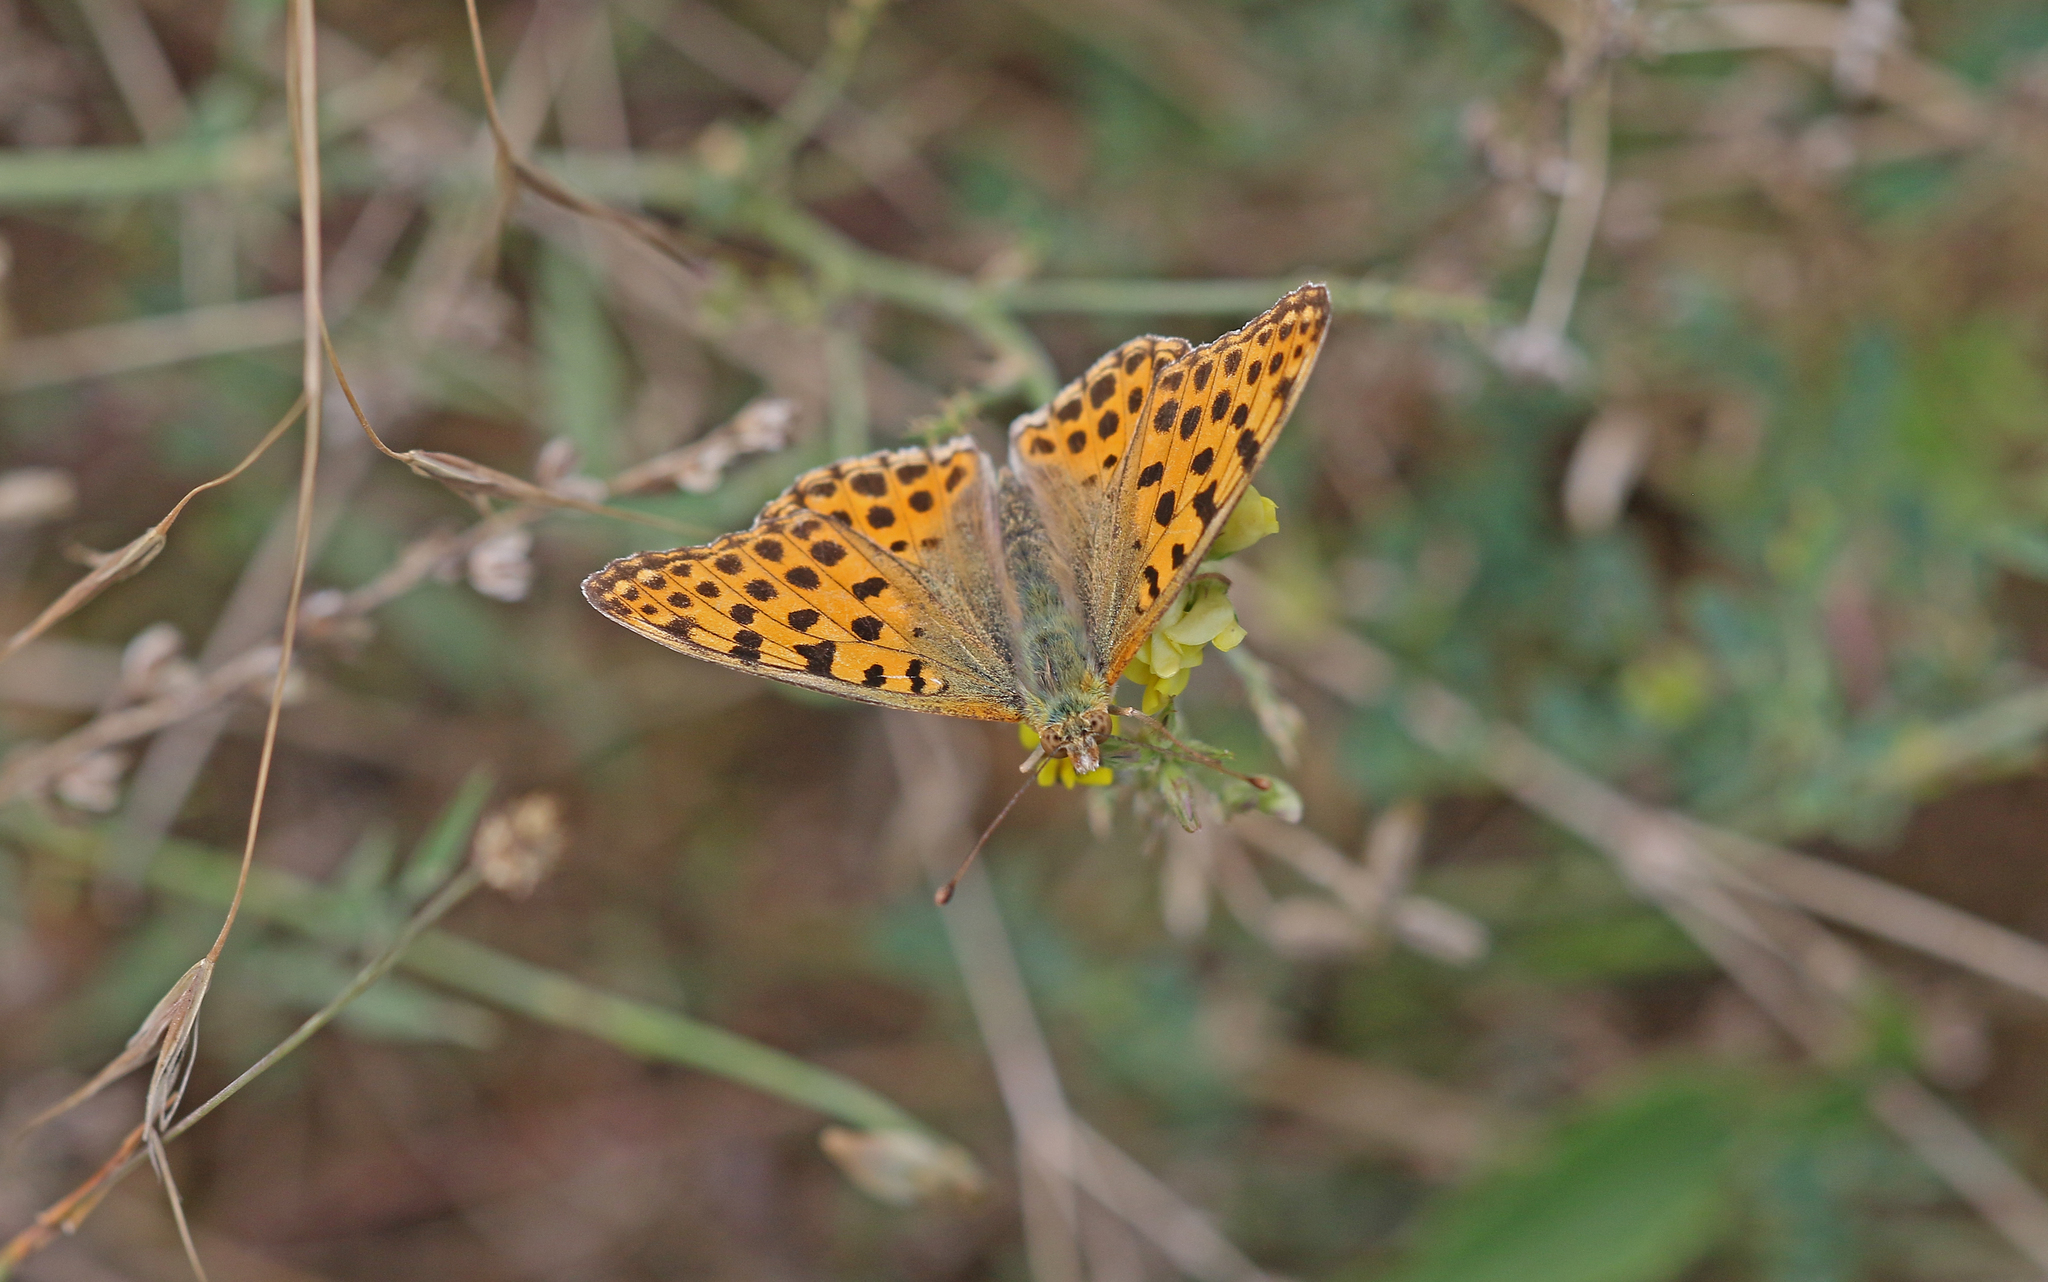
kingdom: Animalia
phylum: Arthropoda
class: Insecta
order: Lepidoptera
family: Nymphalidae
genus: Issoria
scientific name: Issoria lathonia
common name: Queen of spain fritillary
